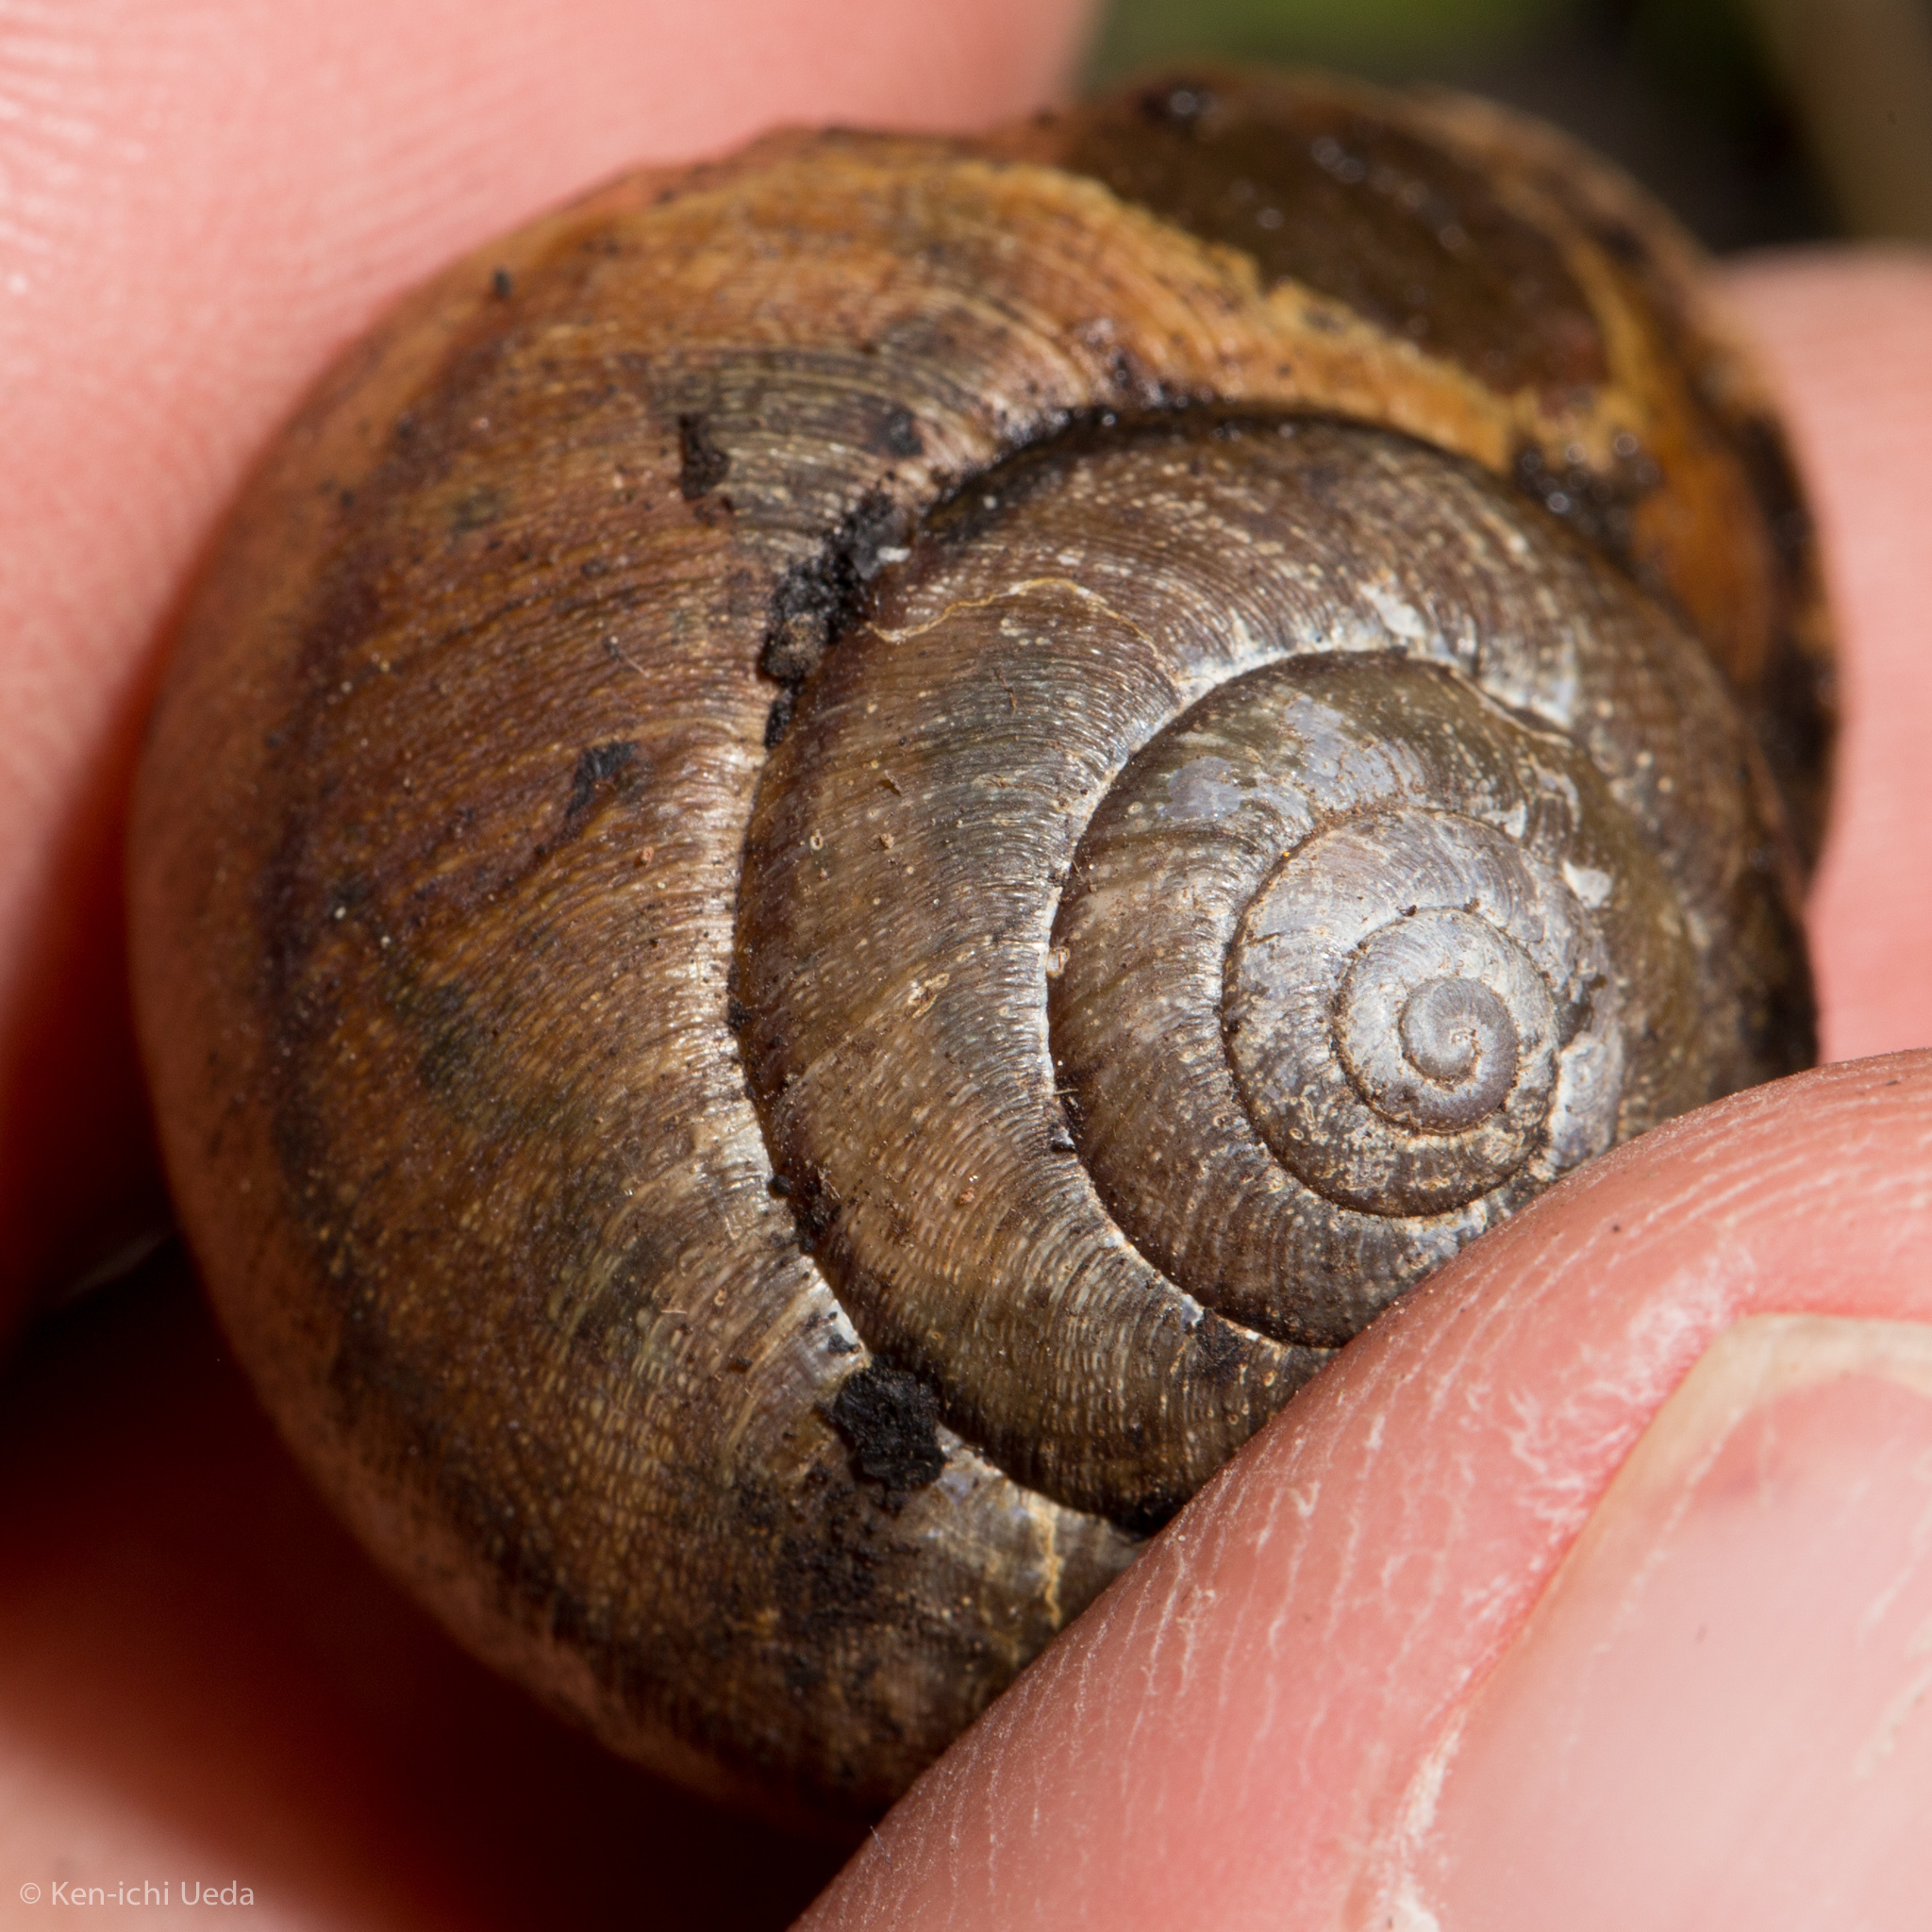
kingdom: Animalia
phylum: Mollusca
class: Gastropoda
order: Stylommatophora
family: Xanthonychidae
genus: Helminthoglypta
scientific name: Helminthoglypta nickliniana
